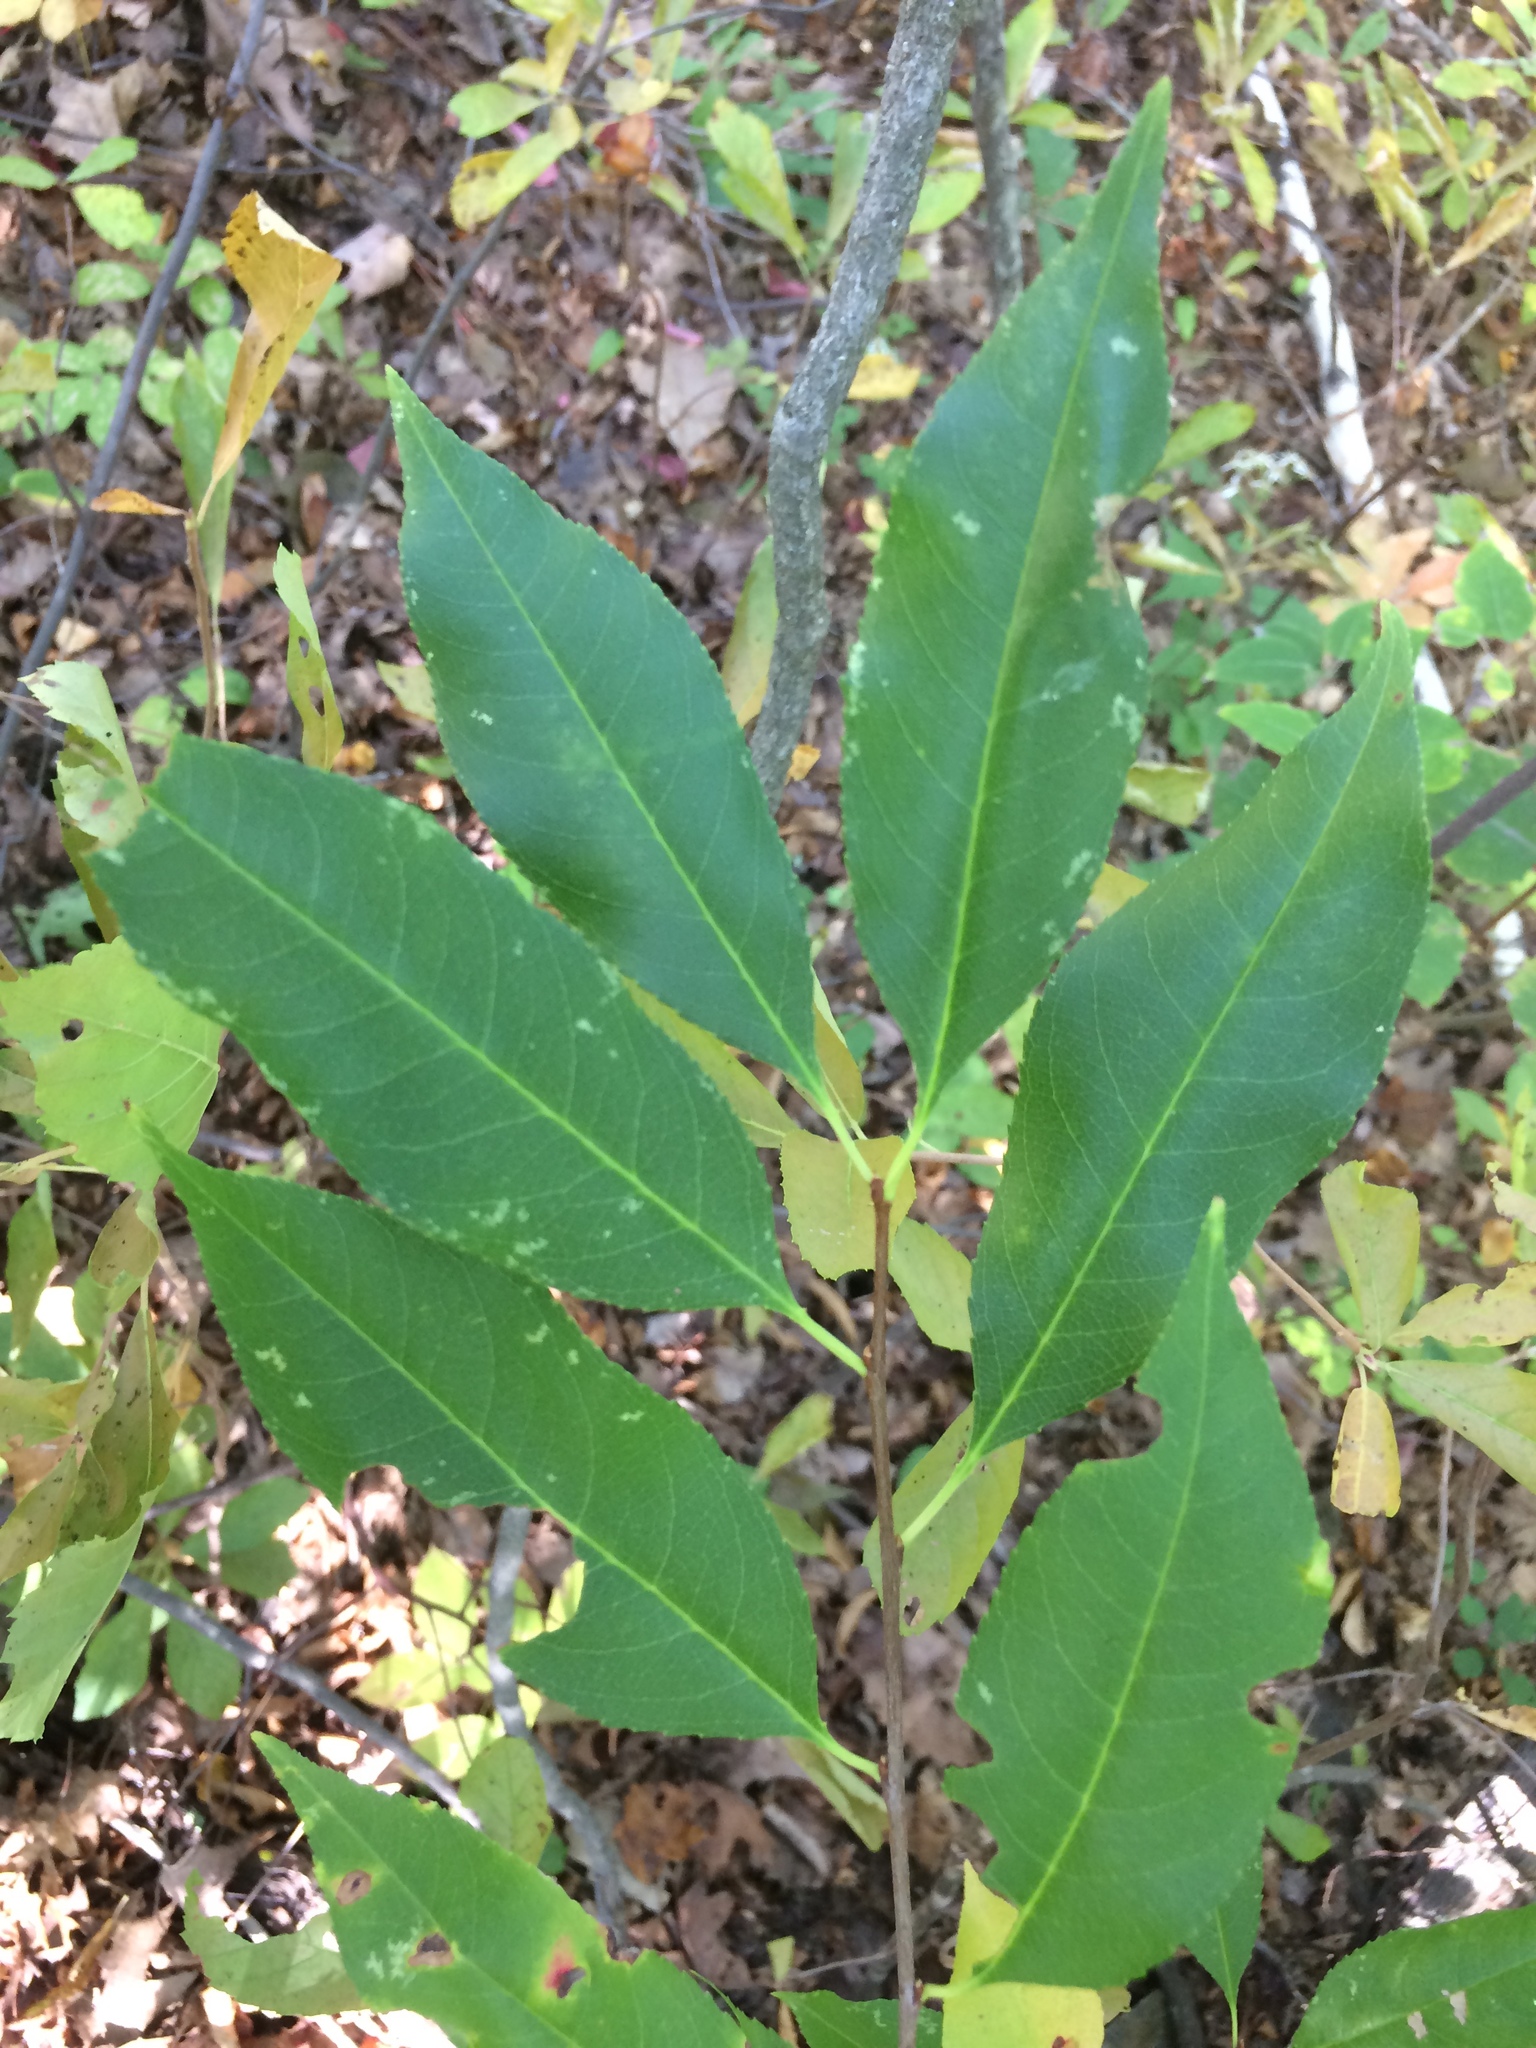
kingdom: Plantae
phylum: Tracheophyta
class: Magnoliopsida
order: Rosales
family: Rosaceae
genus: Prunus
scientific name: Prunus serotina
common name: Black cherry
